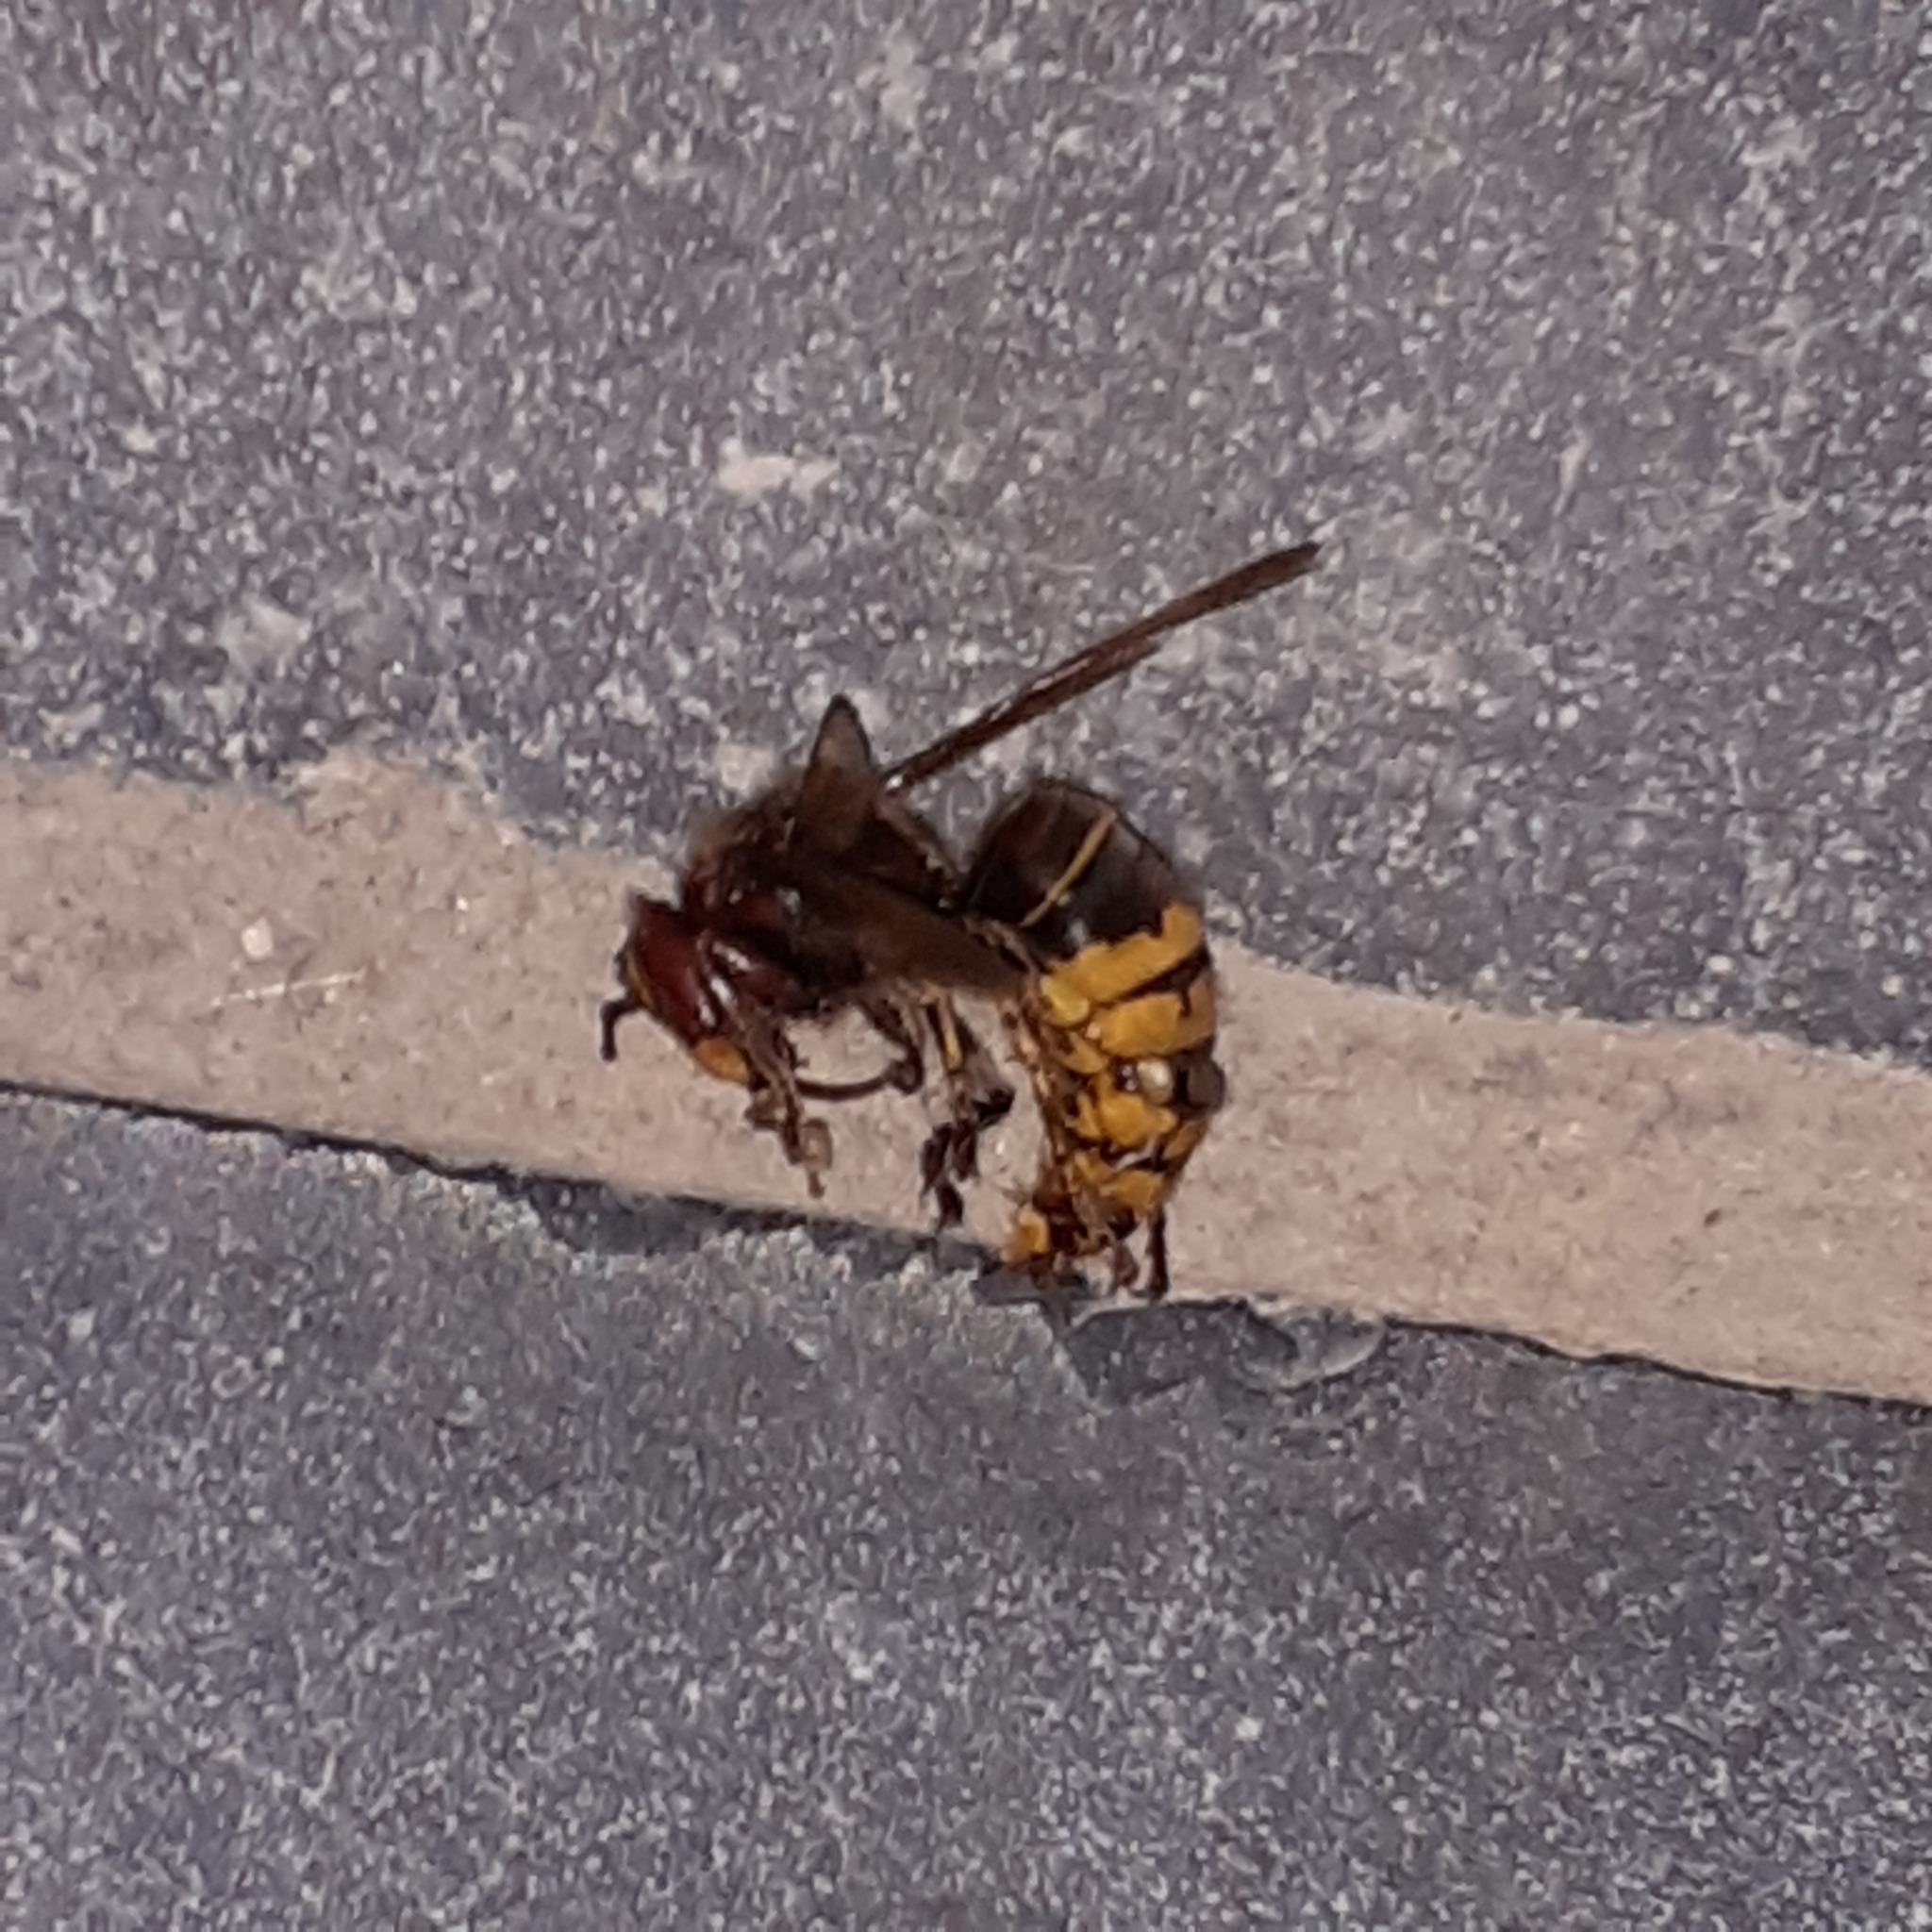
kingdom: Animalia
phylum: Arthropoda
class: Insecta
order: Hymenoptera
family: Vespidae
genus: Vespa
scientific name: Vespa crabro
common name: Hornet
